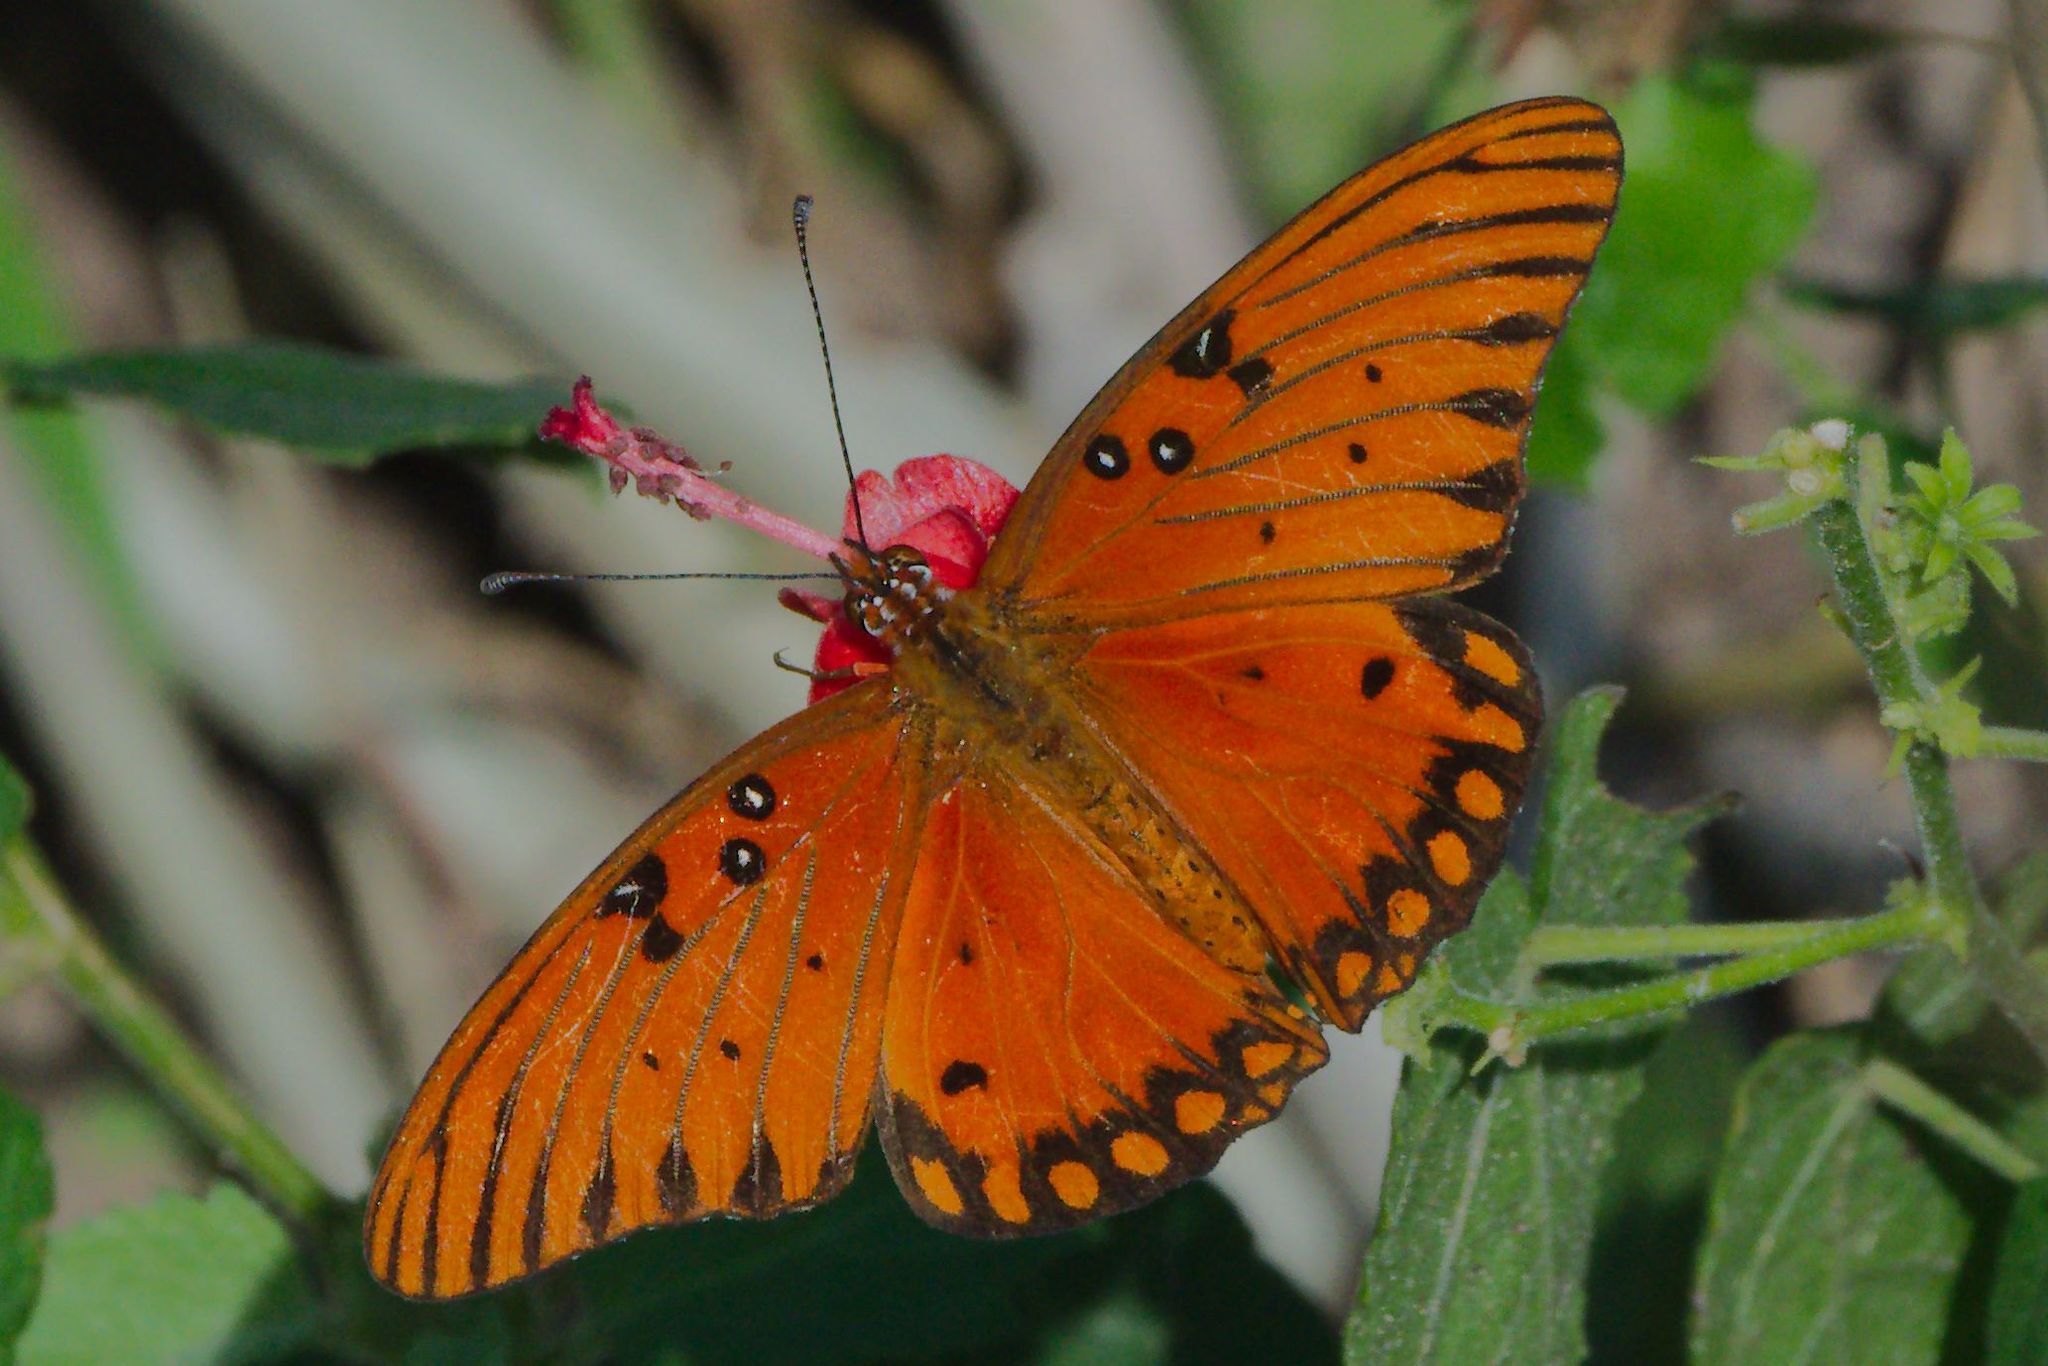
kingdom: Animalia
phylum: Arthropoda
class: Insecta
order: Lepidoptera
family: Nymphalidae
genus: Dione
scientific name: Dione vanillae
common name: Gulf fritillary
